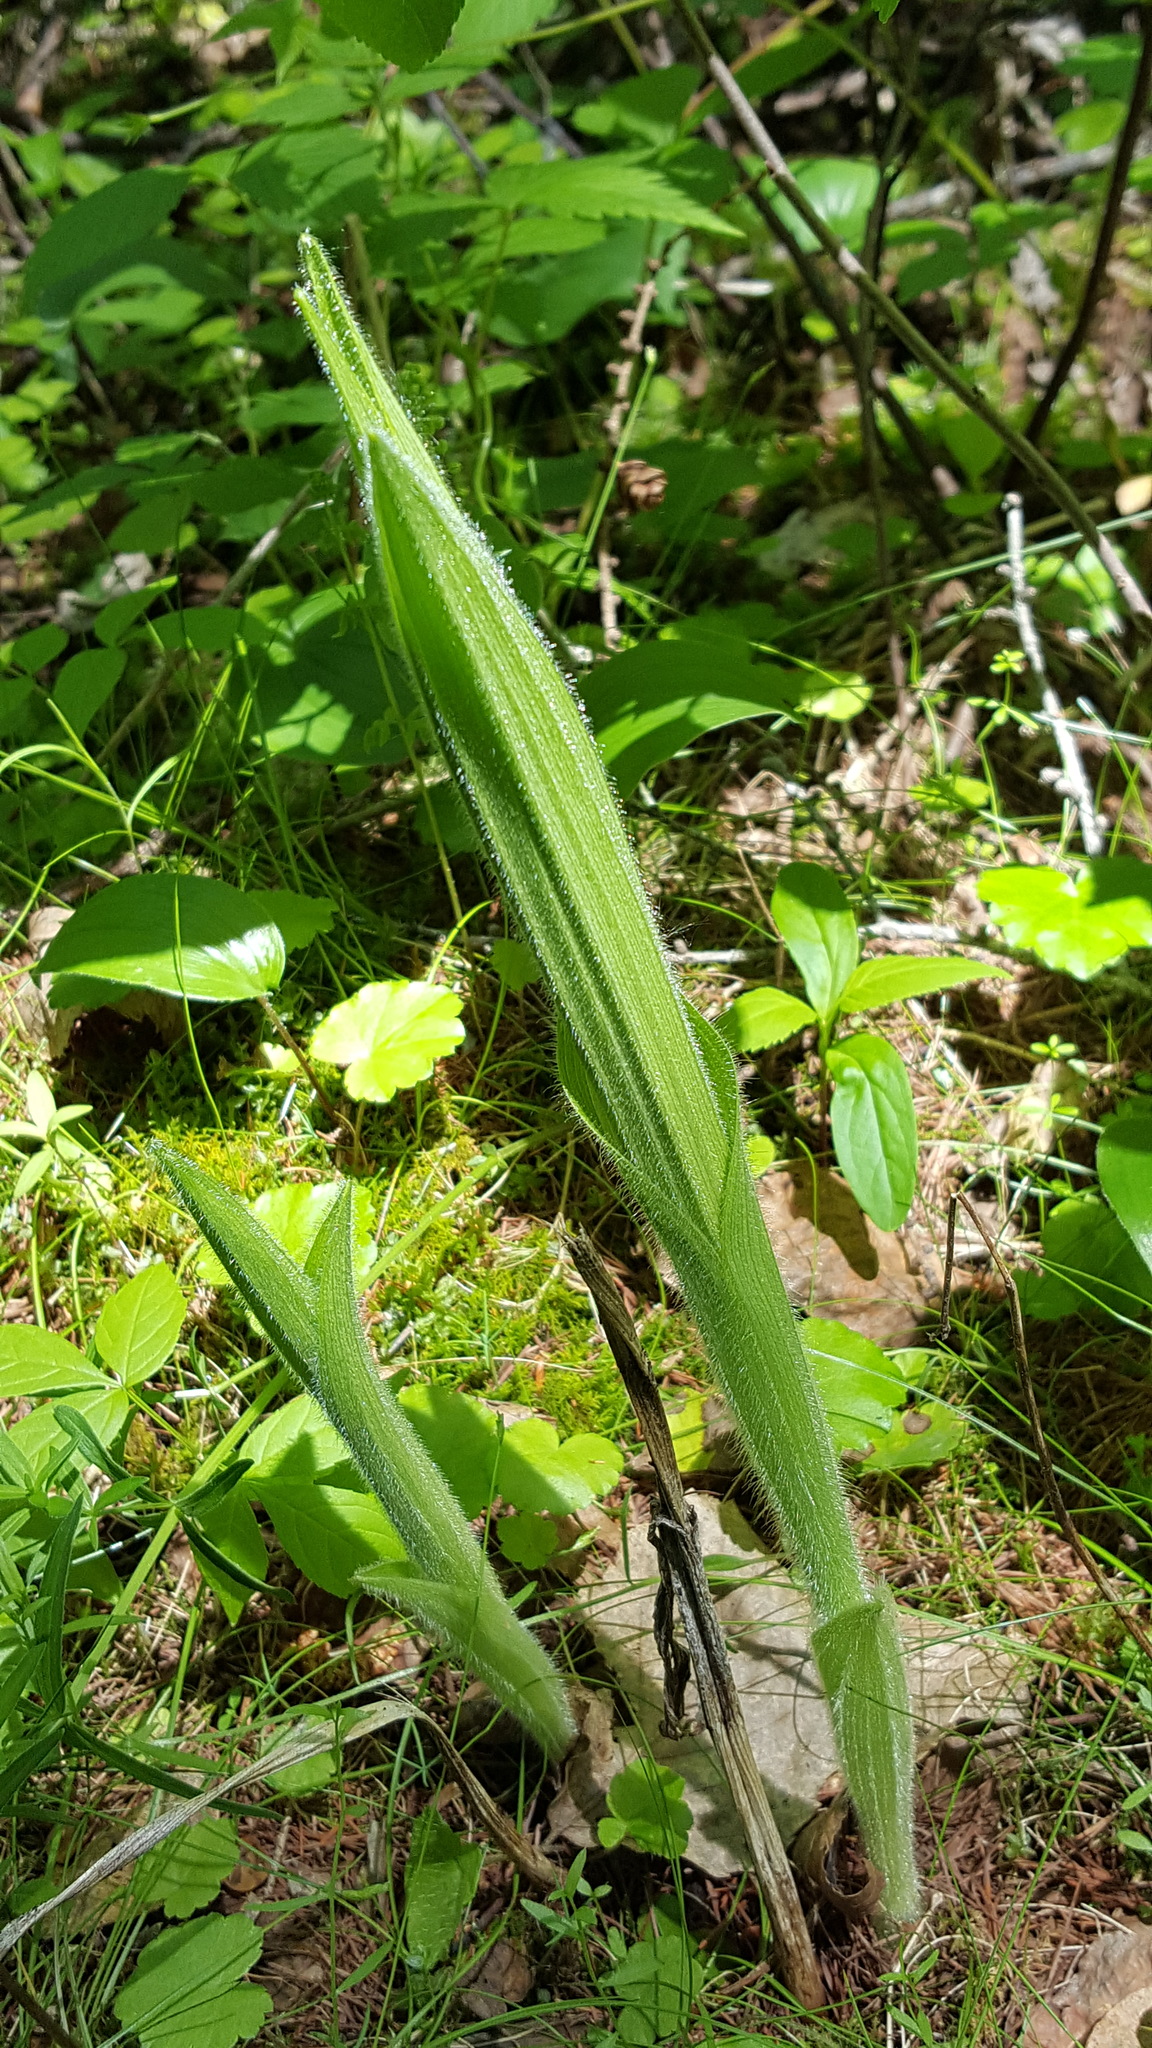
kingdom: Plantae
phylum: Tracheophyta
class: Liliopsida
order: Asparagales
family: Orchidaceae
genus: Cypripedium
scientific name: Cypripedium reginae
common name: Queen lady's-slipper
